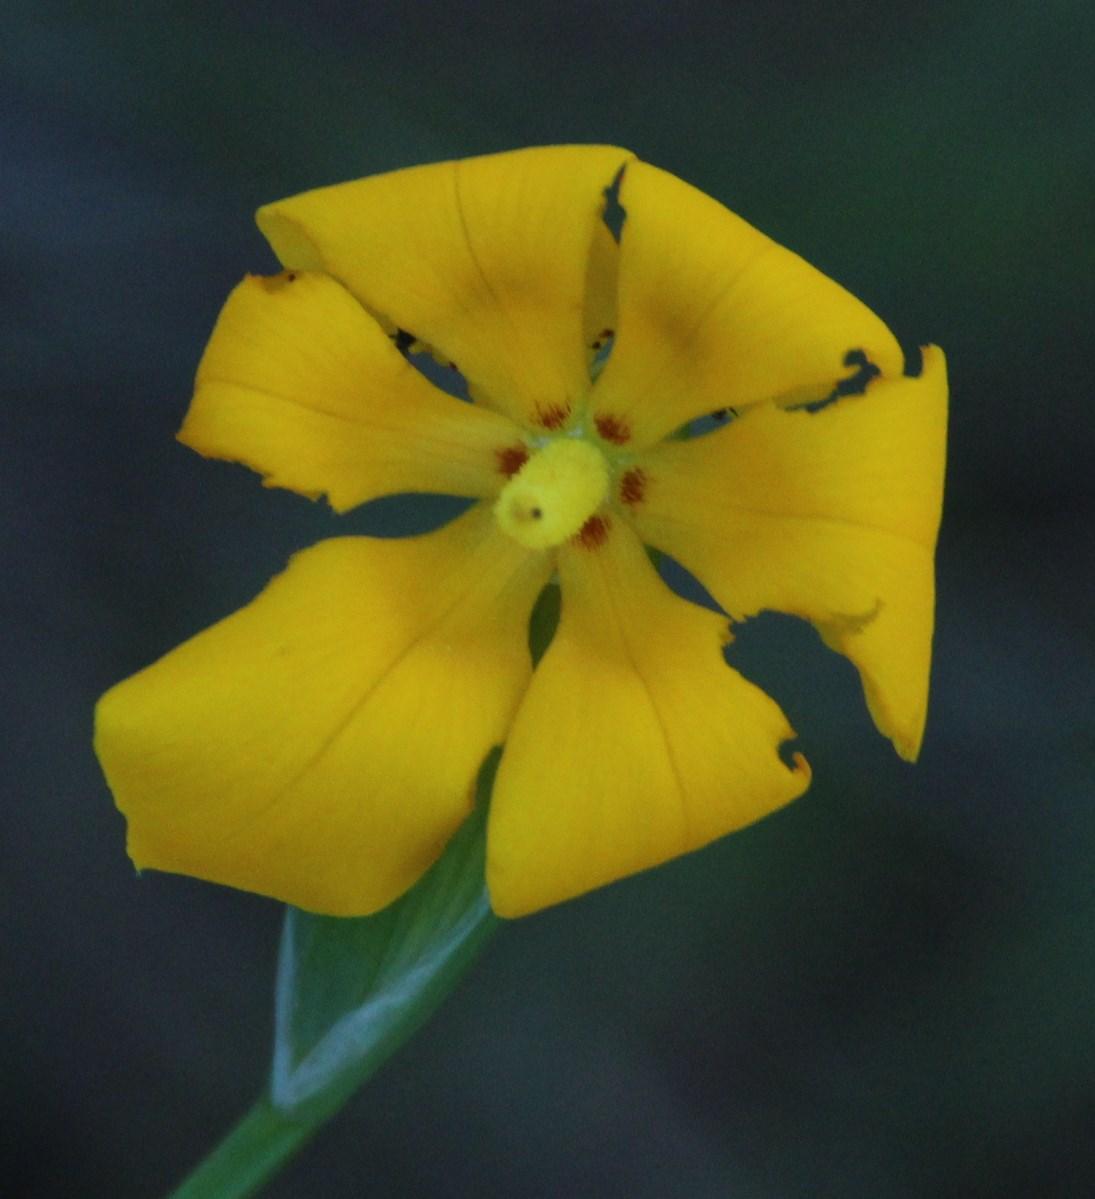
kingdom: Plantae
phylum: Tracheophyta
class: Liliopsida
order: Asparagales
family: Iridaceae
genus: Solenomelus
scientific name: Solenomelus pedunculatus
